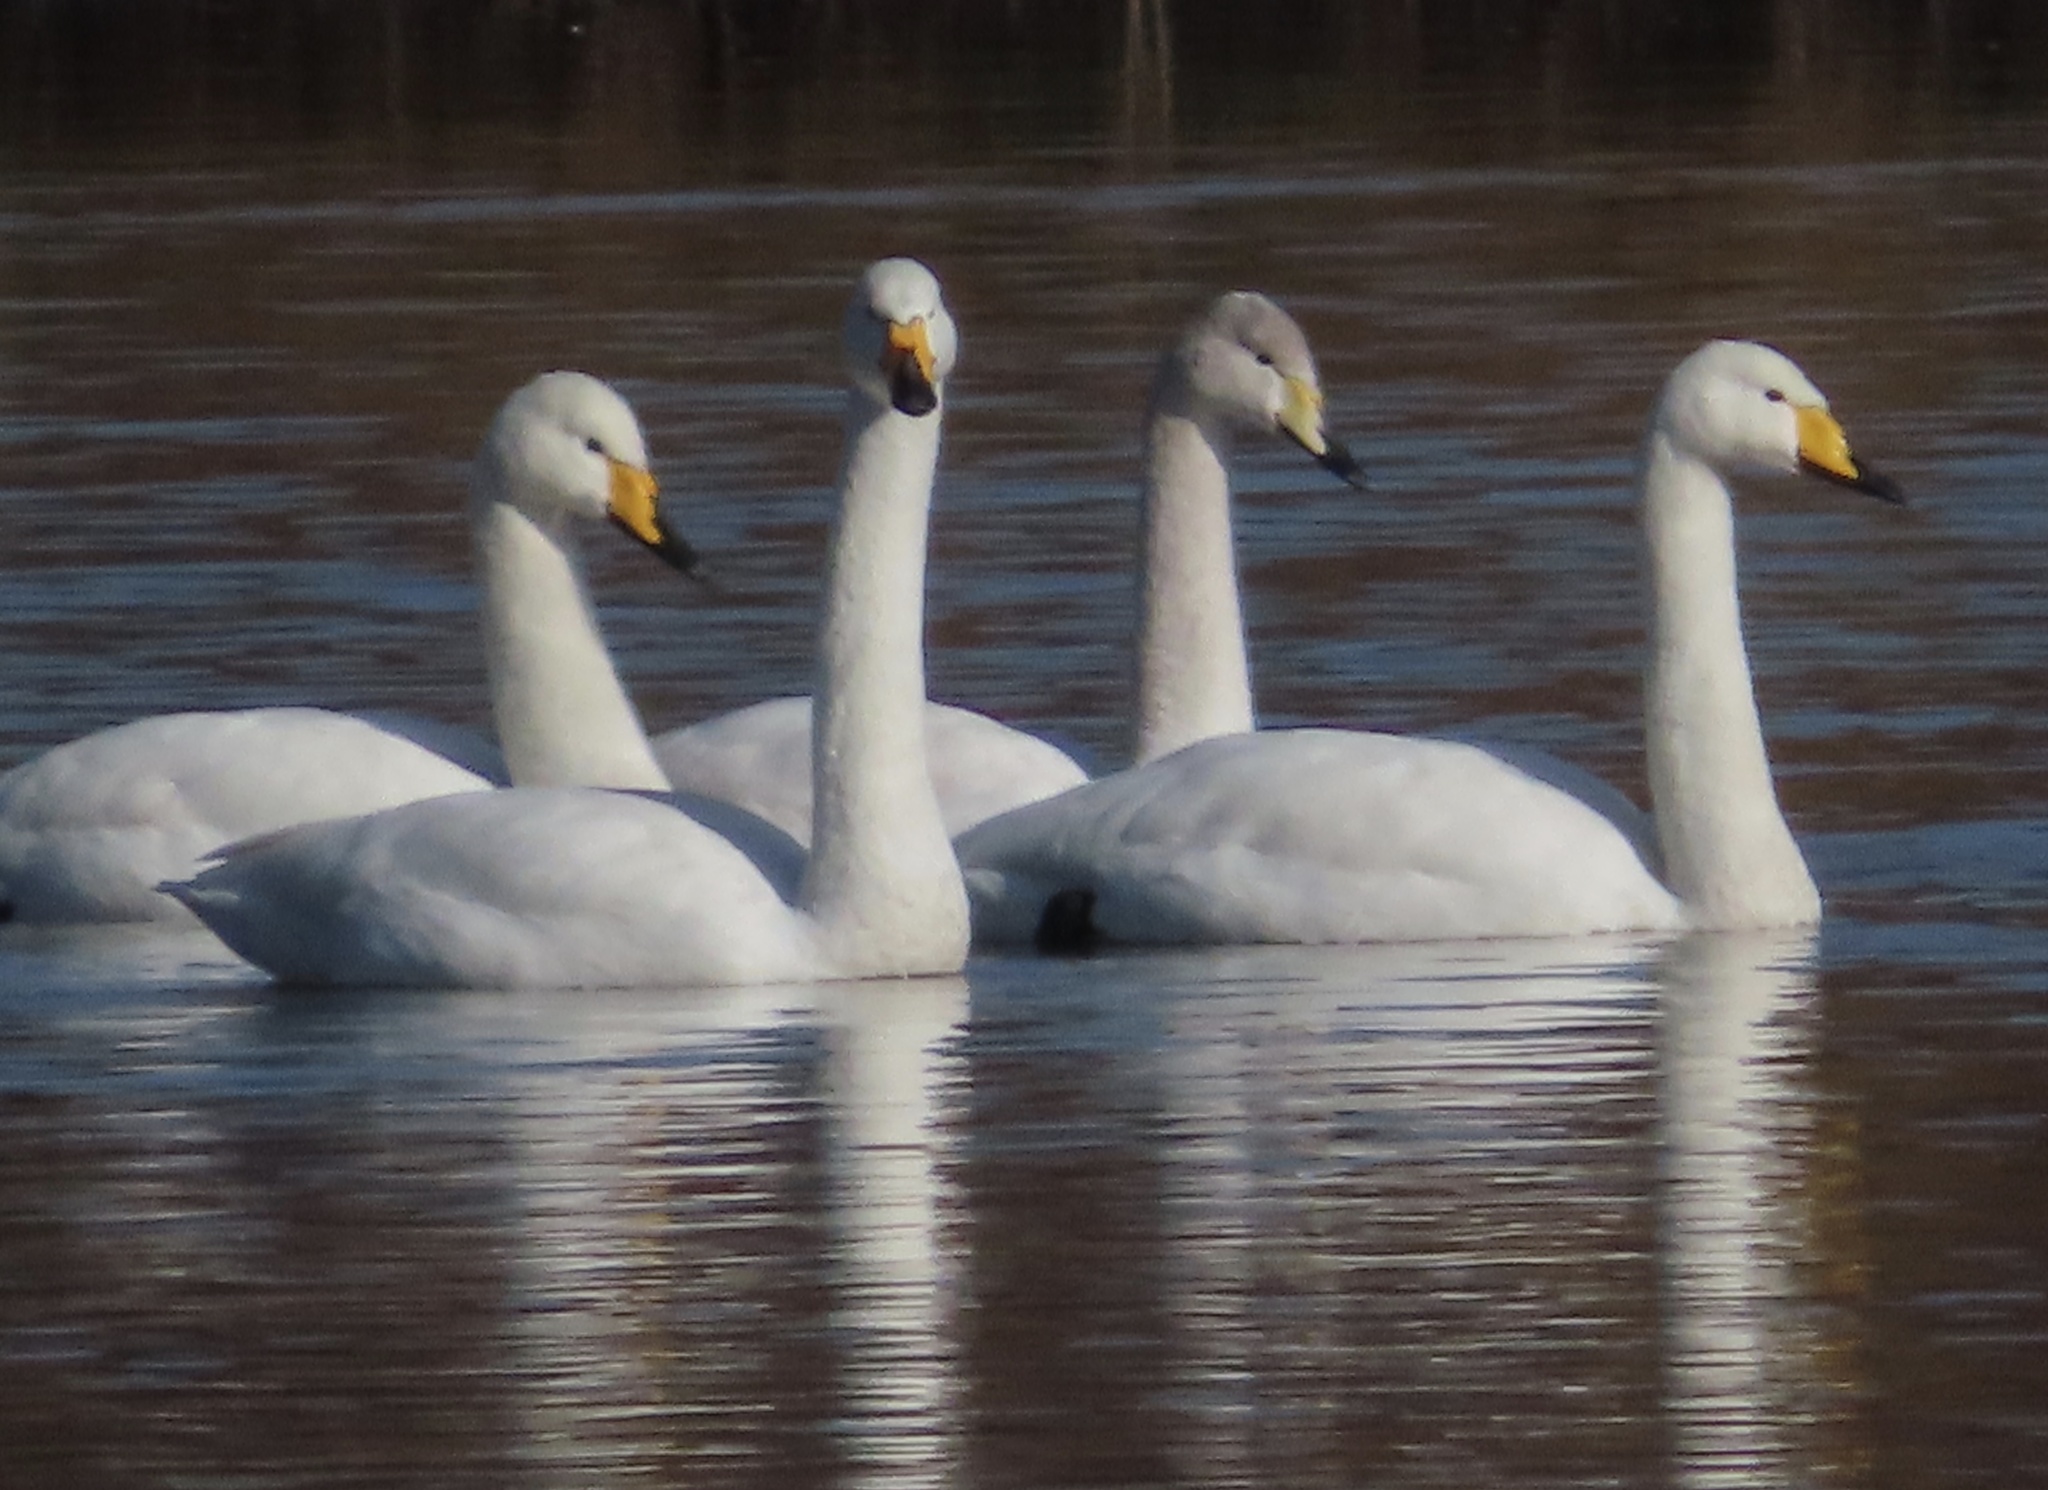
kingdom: Animalia
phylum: Chordata
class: Aves
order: Anseriformes
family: Anatidae
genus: Cygnus
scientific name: Cygnus cygnus
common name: Whooper swan
